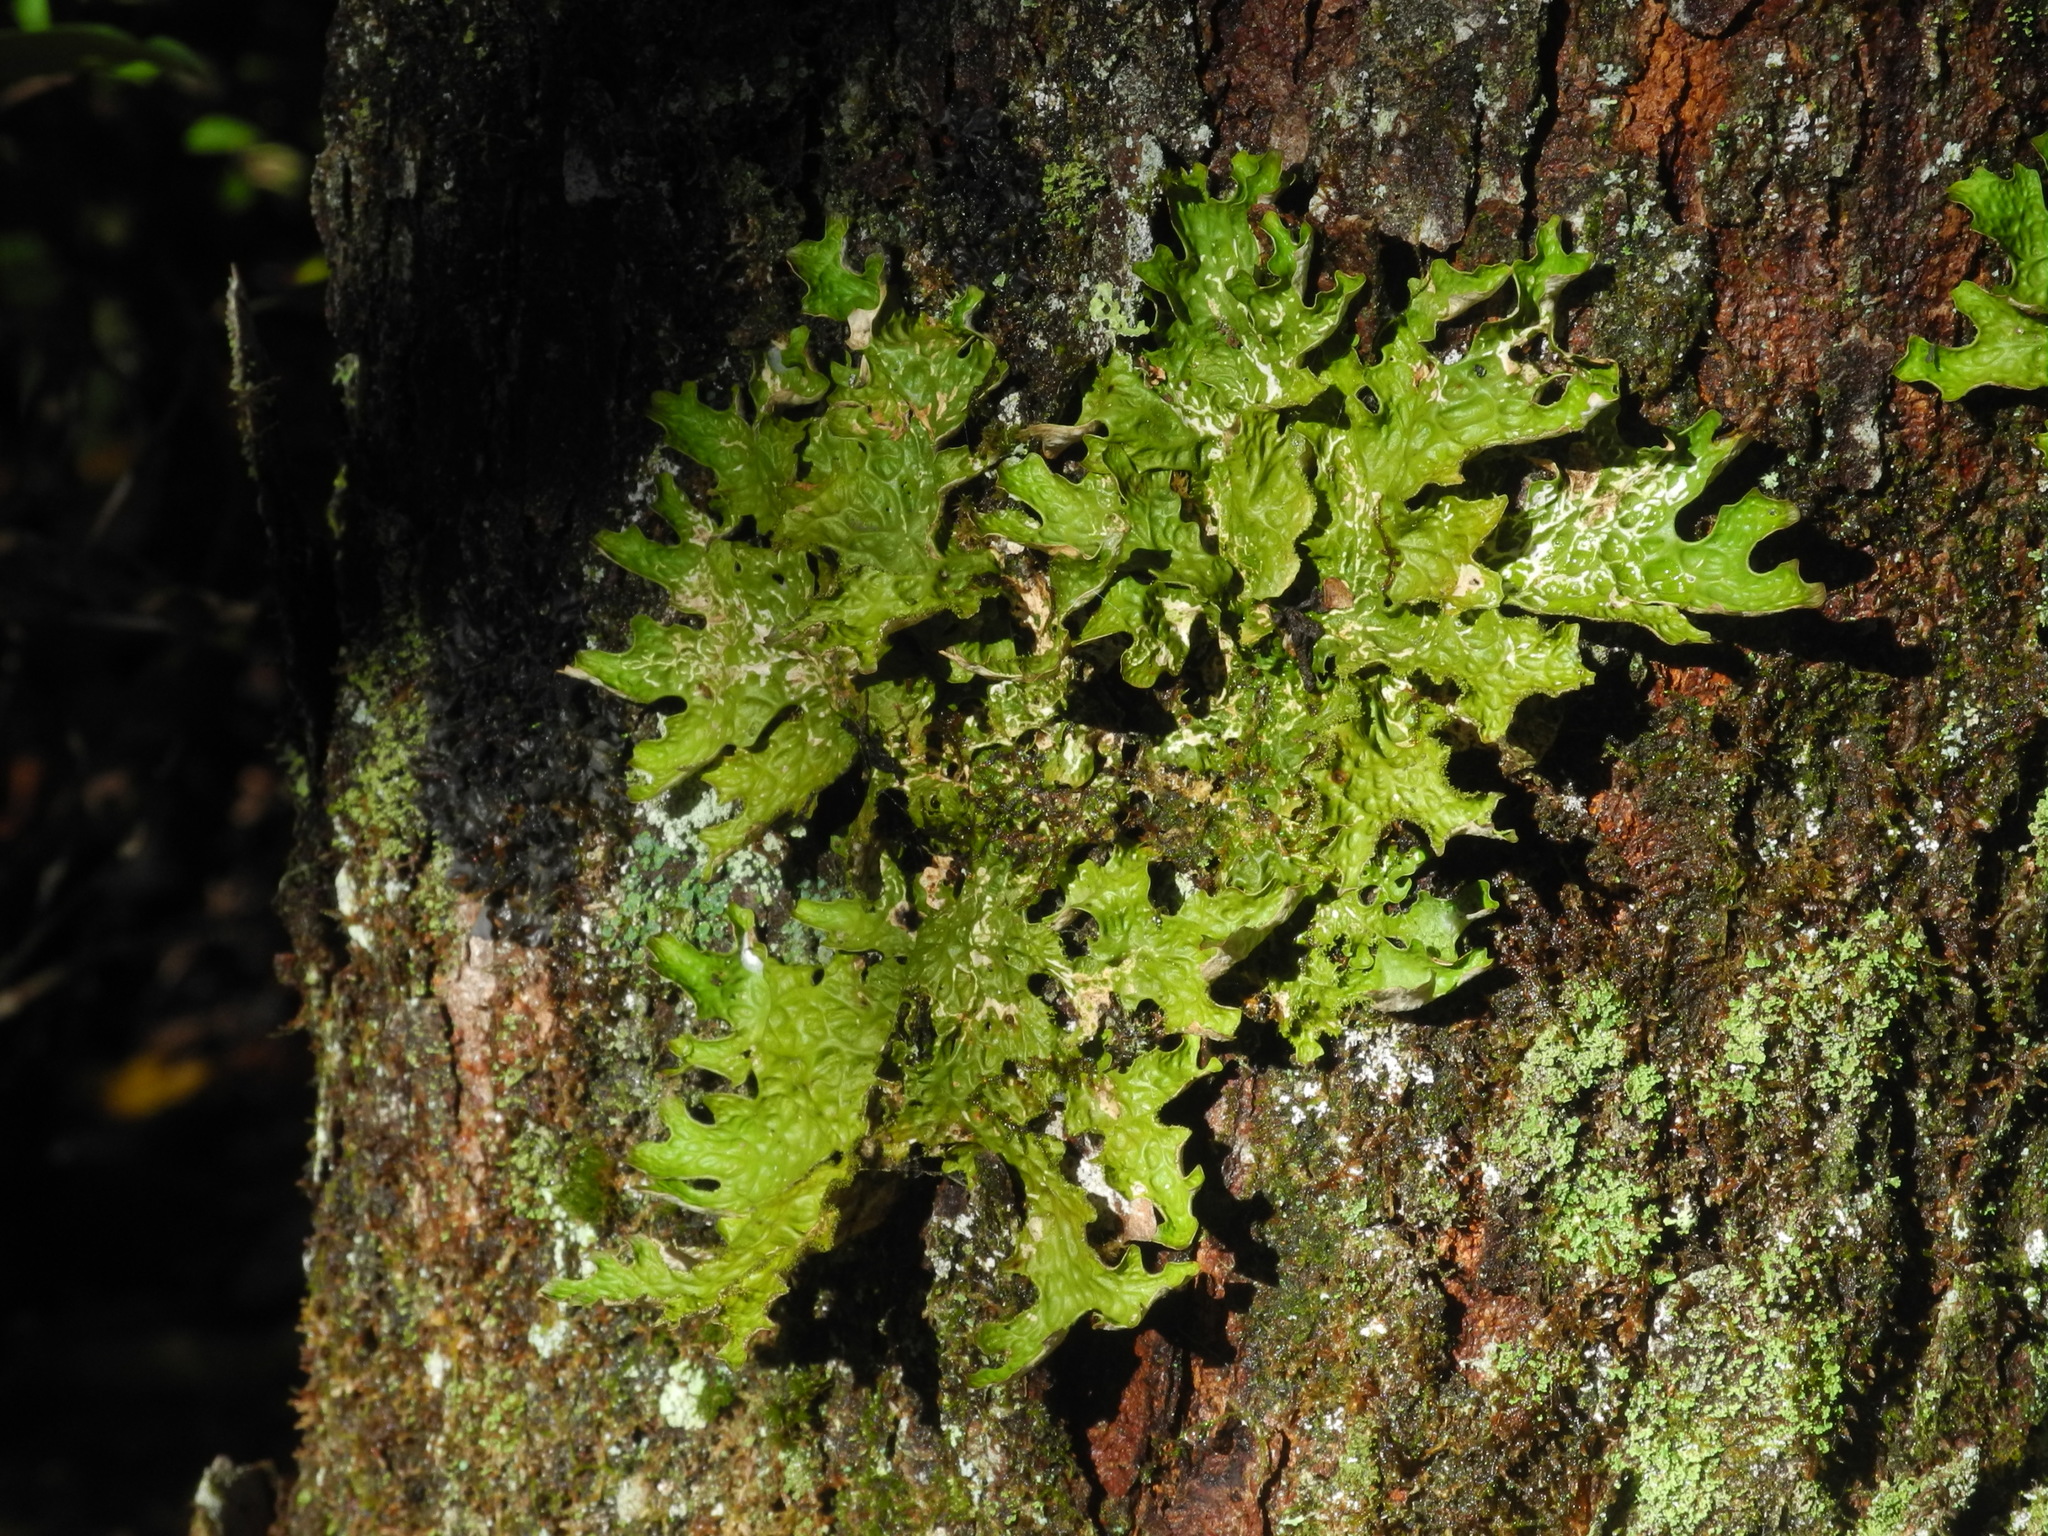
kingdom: Fungi
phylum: Ascomycota
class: Lecanoromycetes
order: Peltigerales
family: Lobariaceae
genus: Lobaria
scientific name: Lobaria pulmonaria
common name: Lungwort
